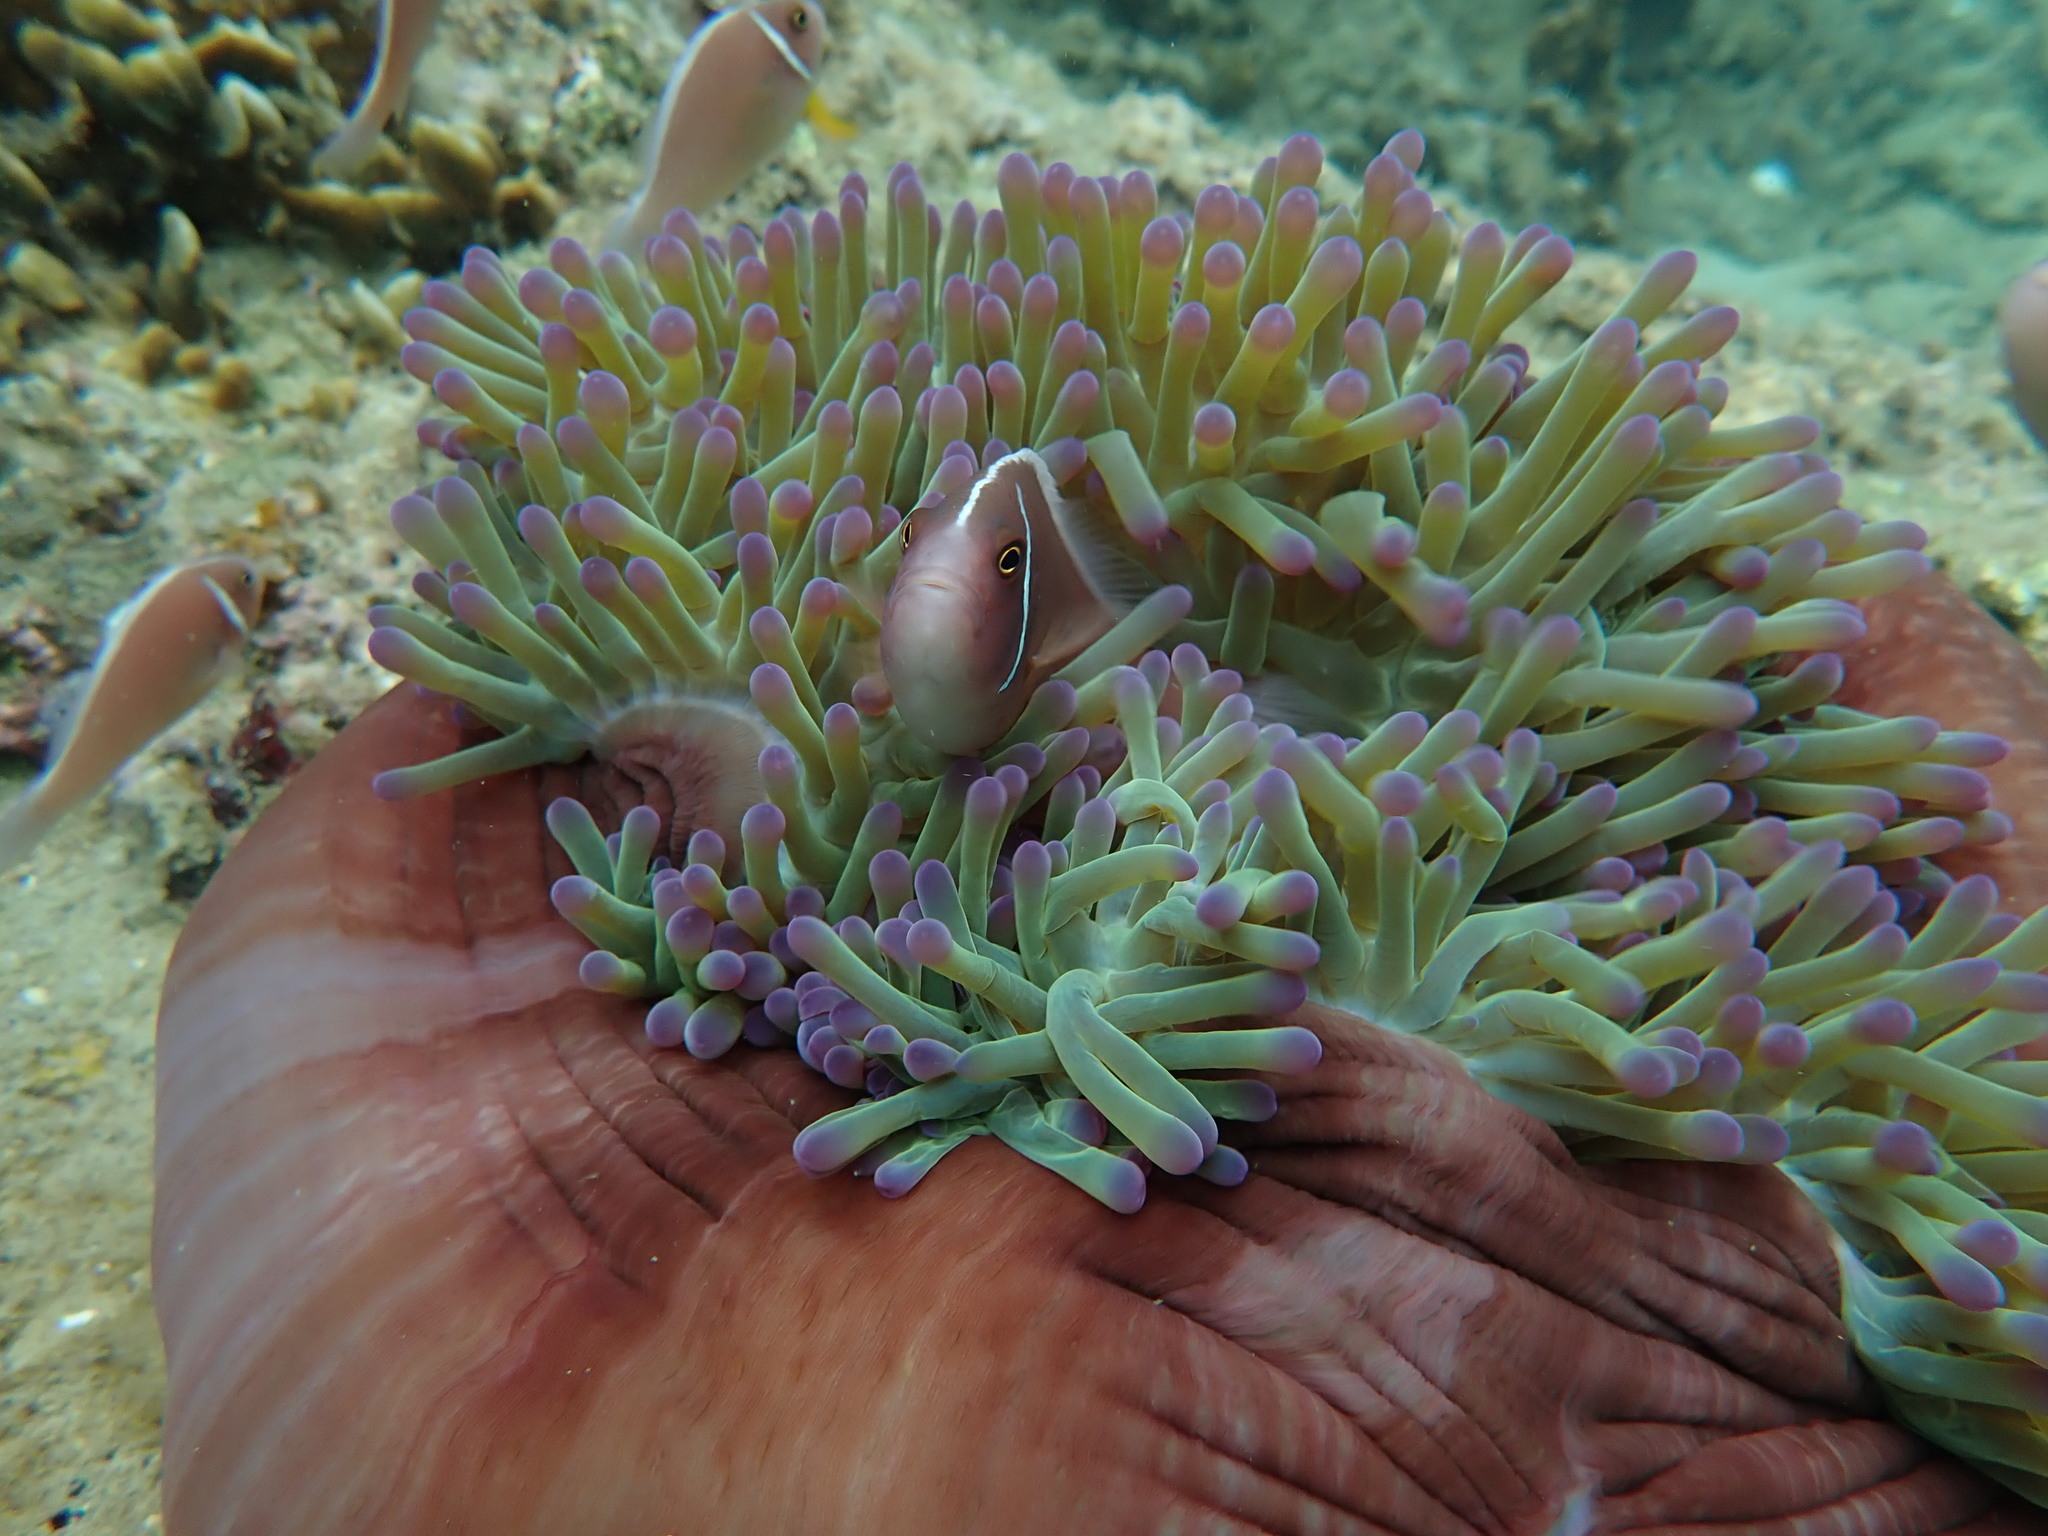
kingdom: Animalia
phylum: Chordata
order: Perciformes
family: Pomacentridae
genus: Amphiprion
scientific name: Amphiprion perideraion
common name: Pink anemonefish
